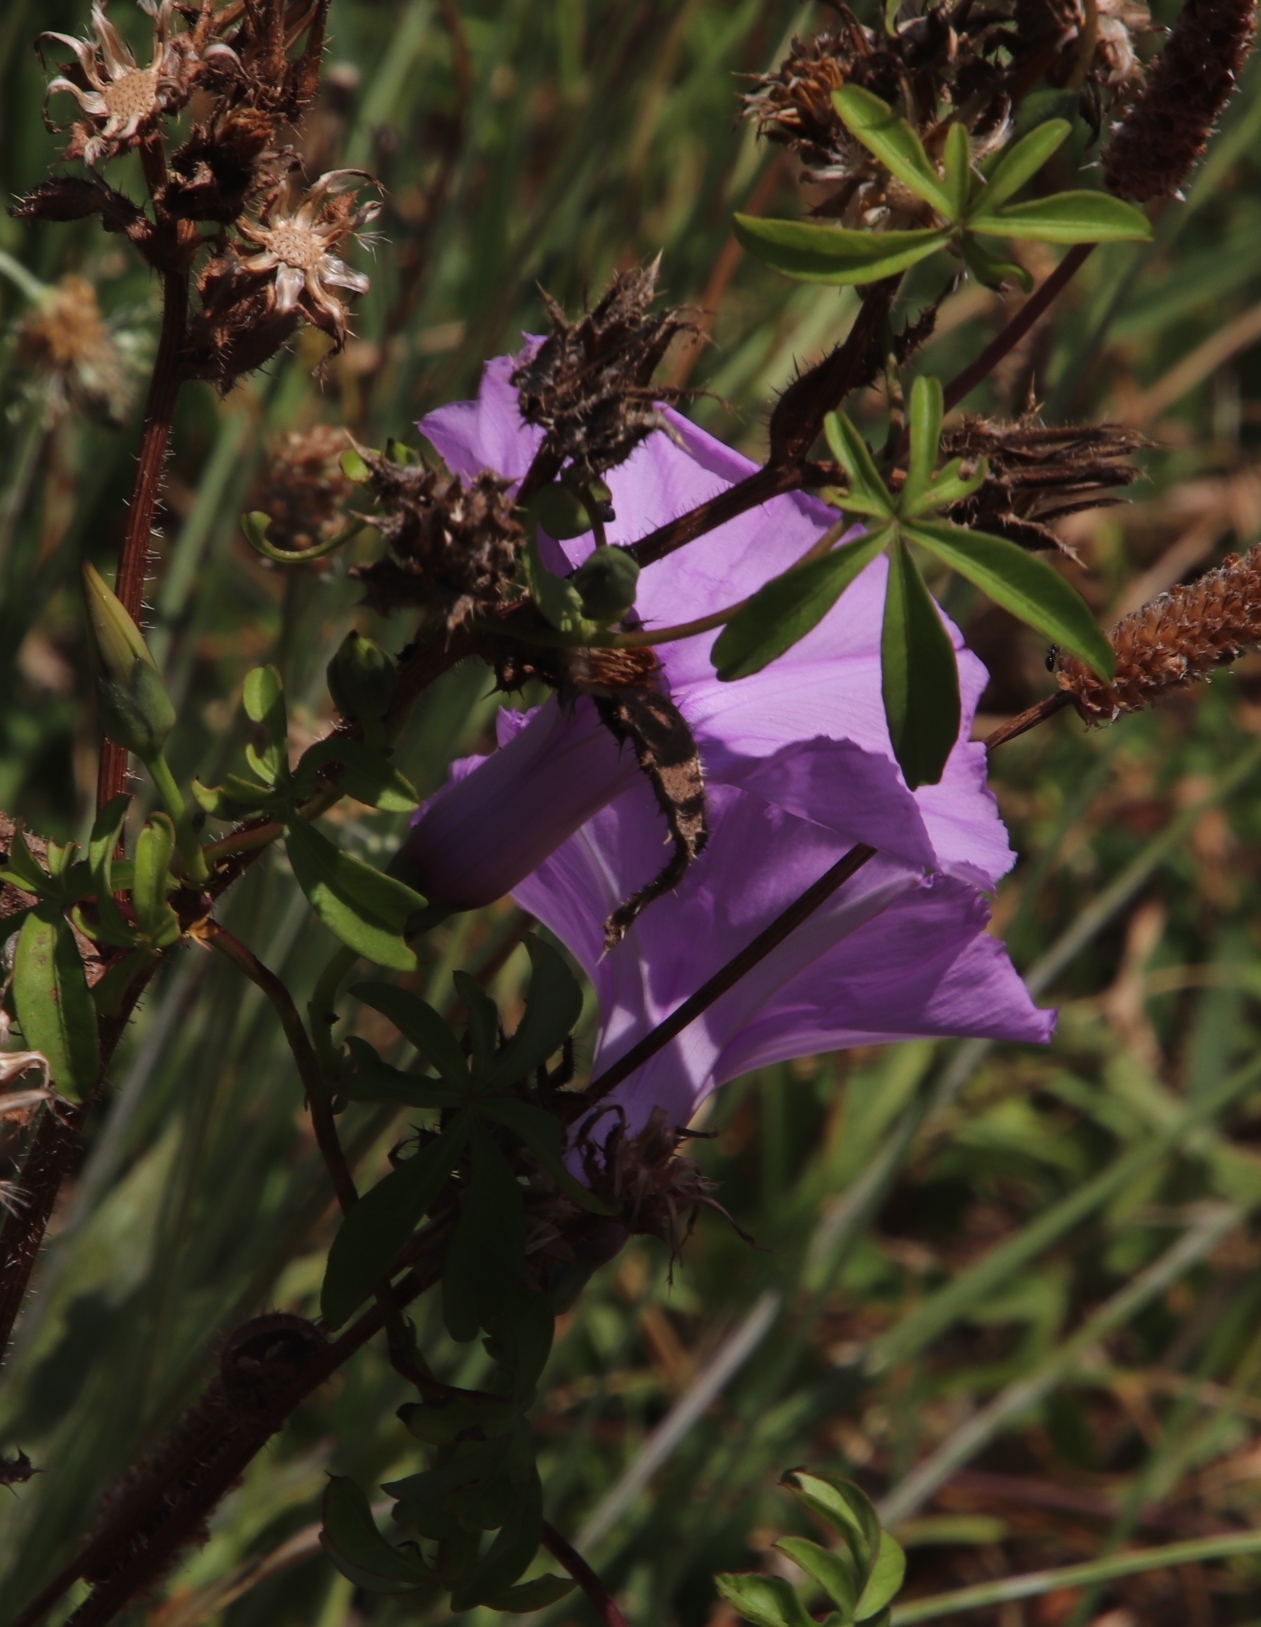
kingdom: Plantae
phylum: Tracheophyta
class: Magnoliopsida
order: Solanales
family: Convolvulaceae
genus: Ipomoea
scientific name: Ipomoea cairica
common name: Mile a minute vine
